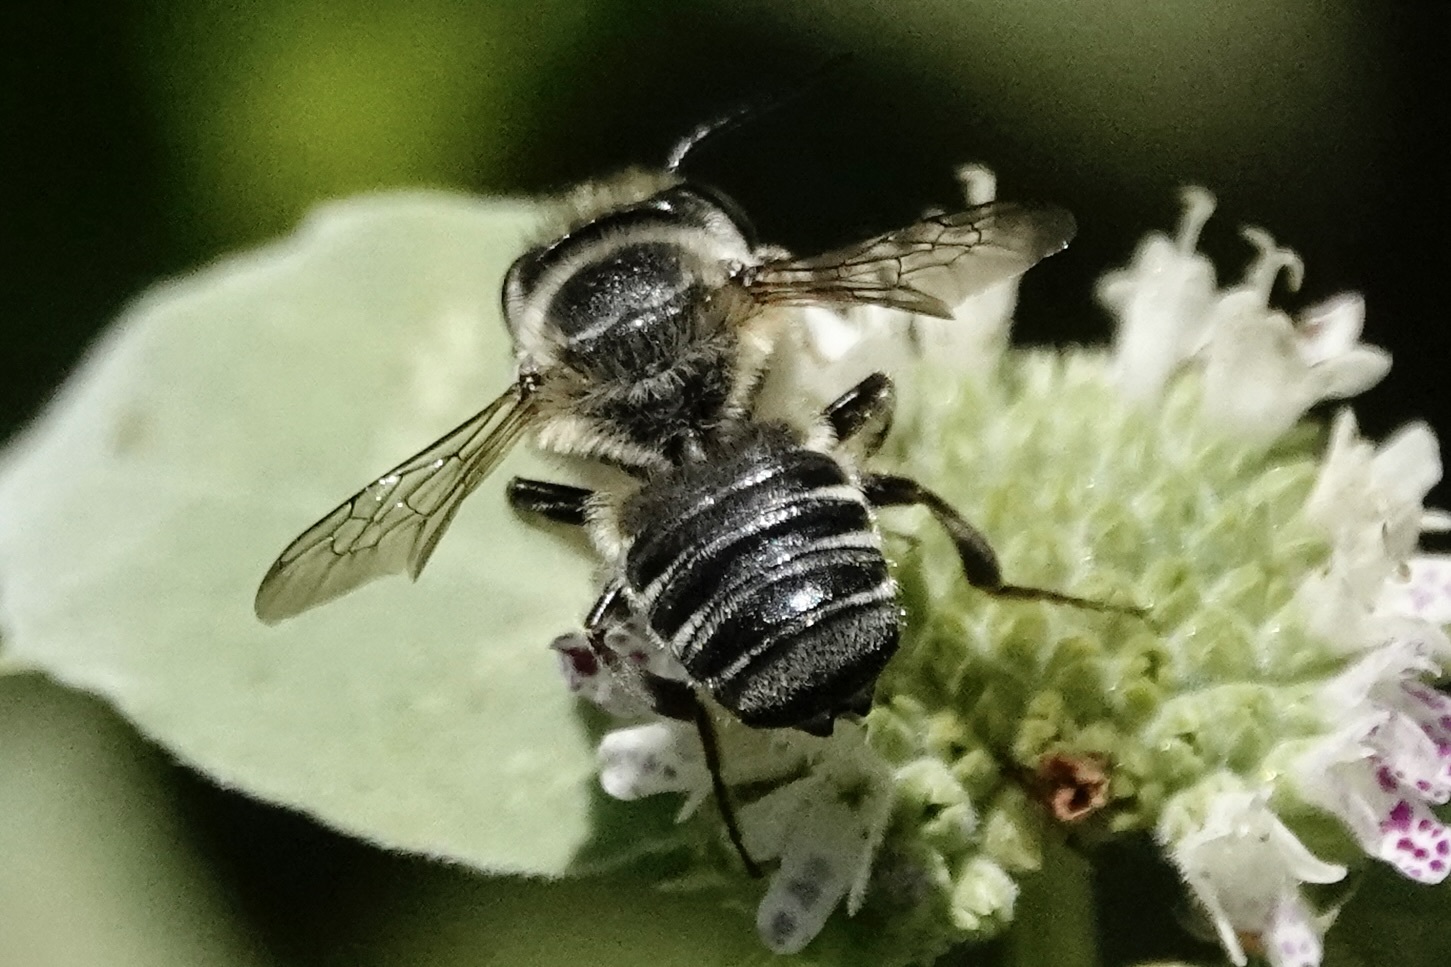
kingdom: Animalia
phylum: Arthropoda
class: Insecta
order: Hymenoptera
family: Megachilidae
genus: Megachile
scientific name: Megachile petulans
